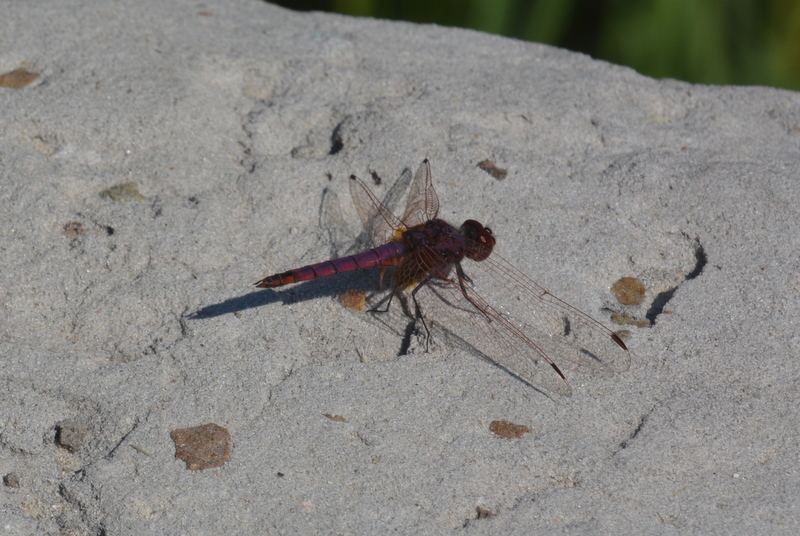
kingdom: Animalia
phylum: Arthropoda
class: Insecta
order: Odonata
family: Libellulidae
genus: Trithemis
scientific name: Trithemis annulata
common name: Violet dropwing
